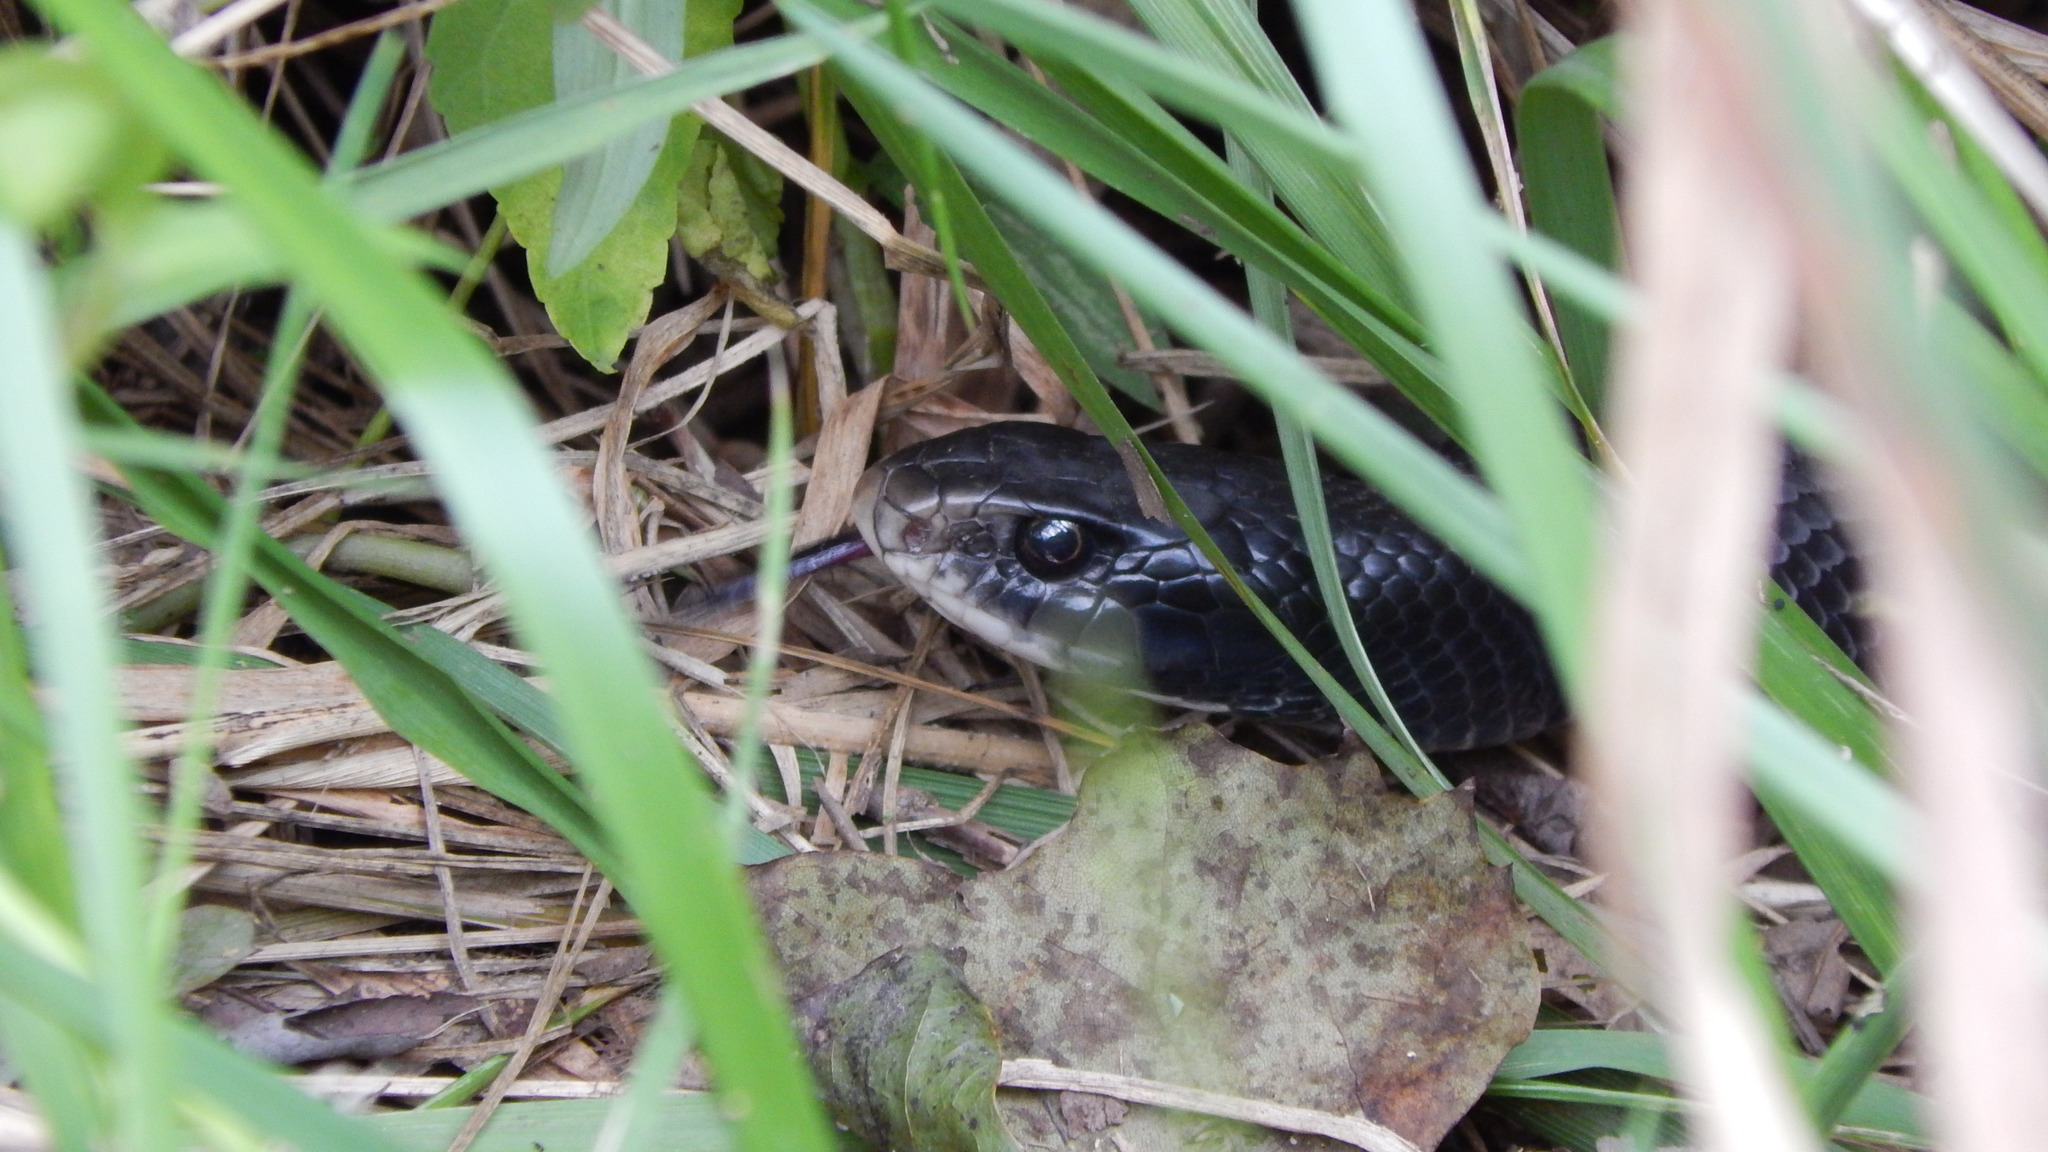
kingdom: Animalia
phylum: Chordata
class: Squamata
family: Colubridae
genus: Coluber
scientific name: Coluber constrictor
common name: Eastern racer
